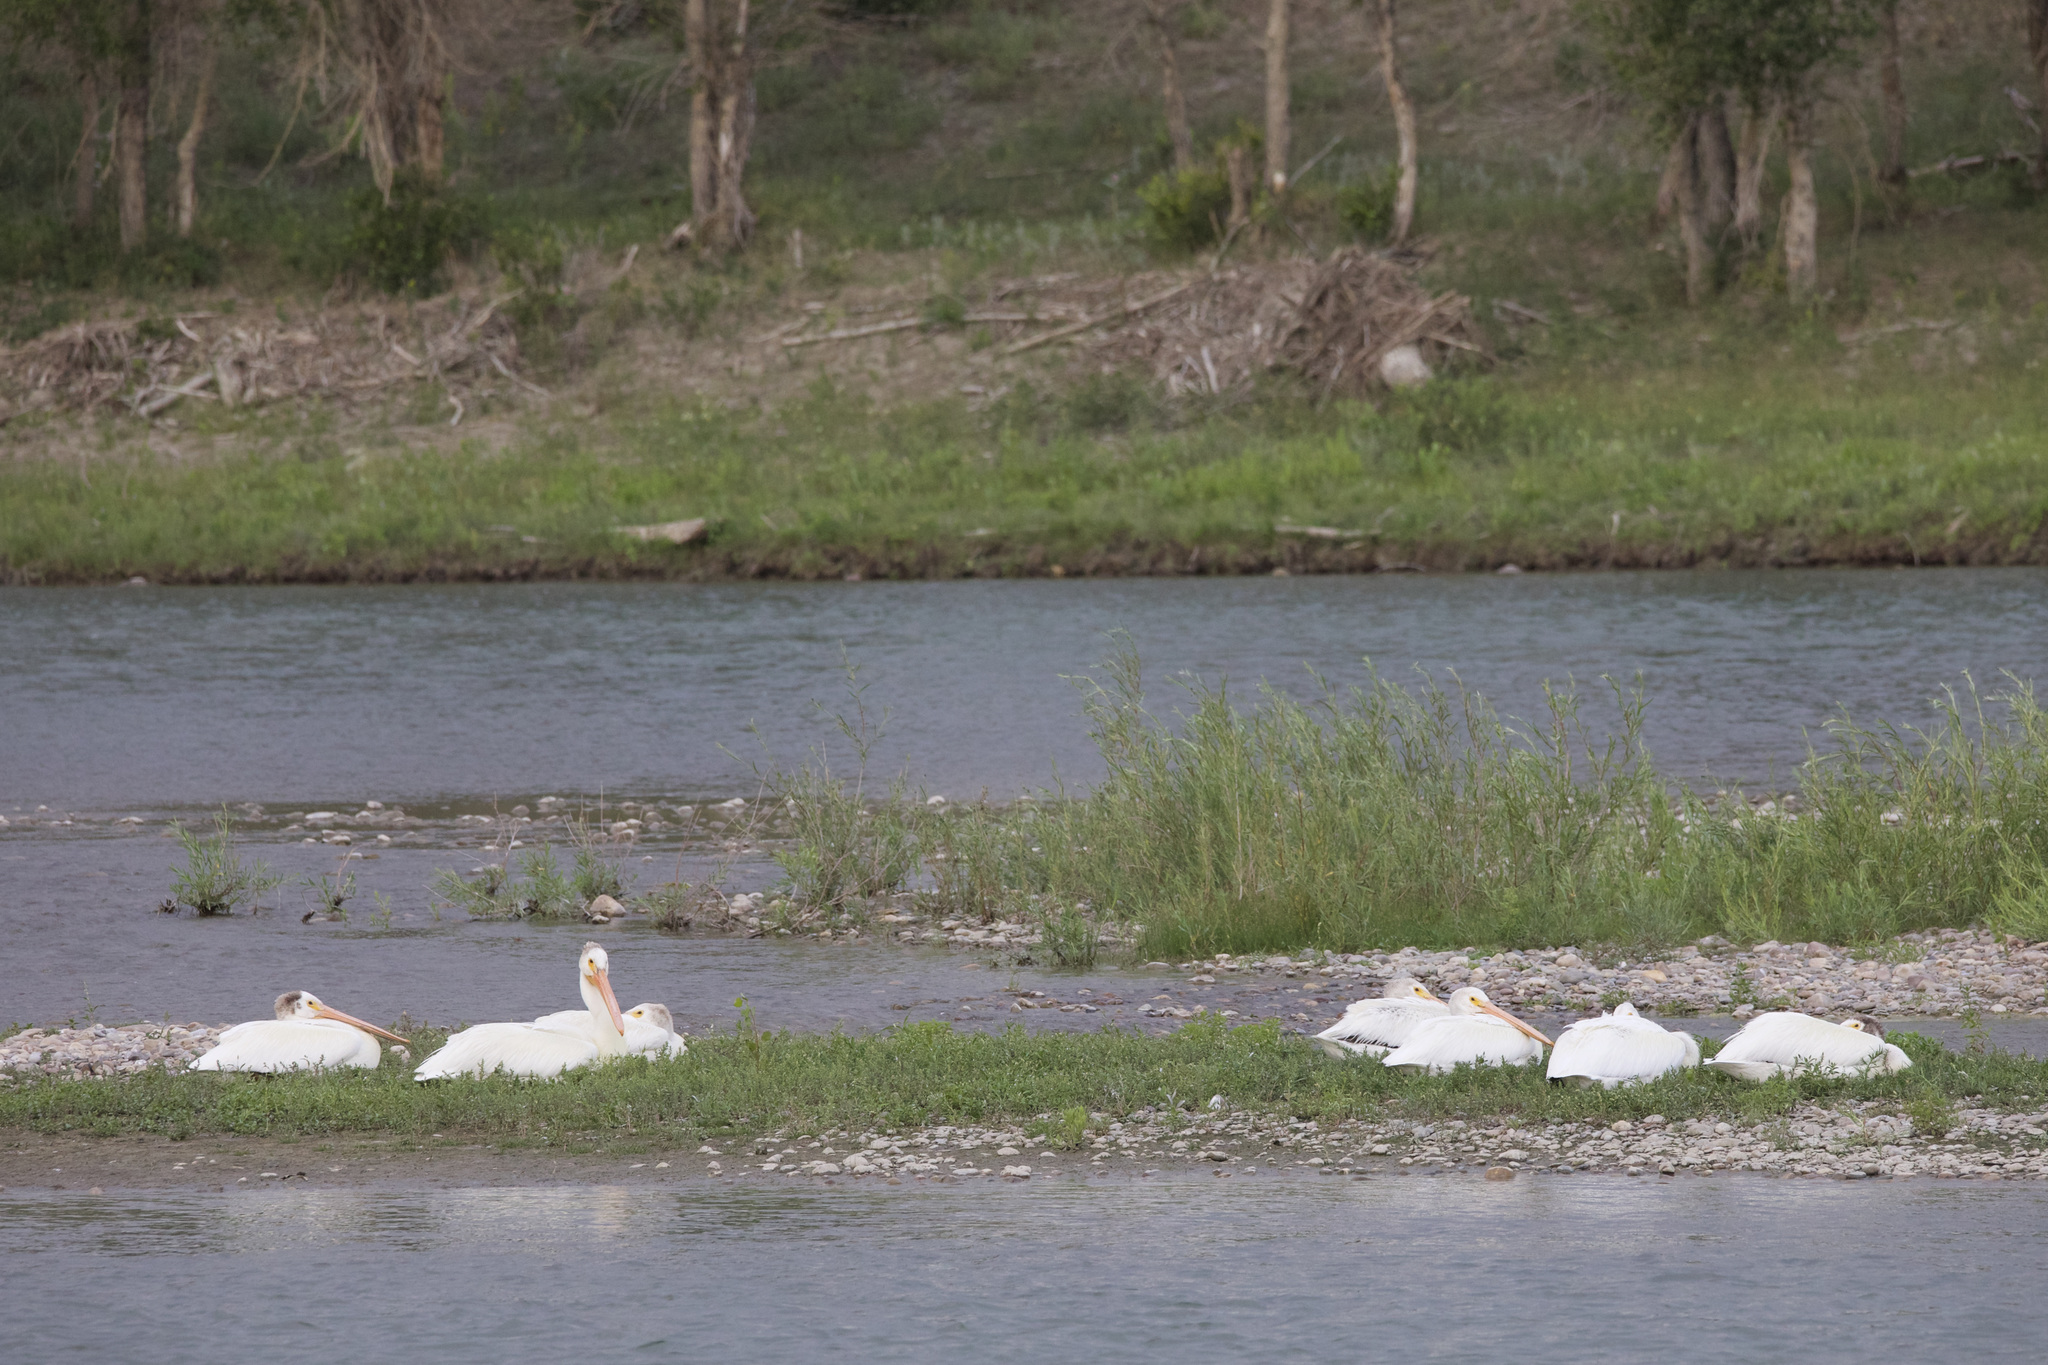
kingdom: Animalia
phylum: Chordata
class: Aves
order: Pelecaniformes
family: Pelecanidae
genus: Pelecanus
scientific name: Pelecanus erythrorhynchos
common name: American white pelican
